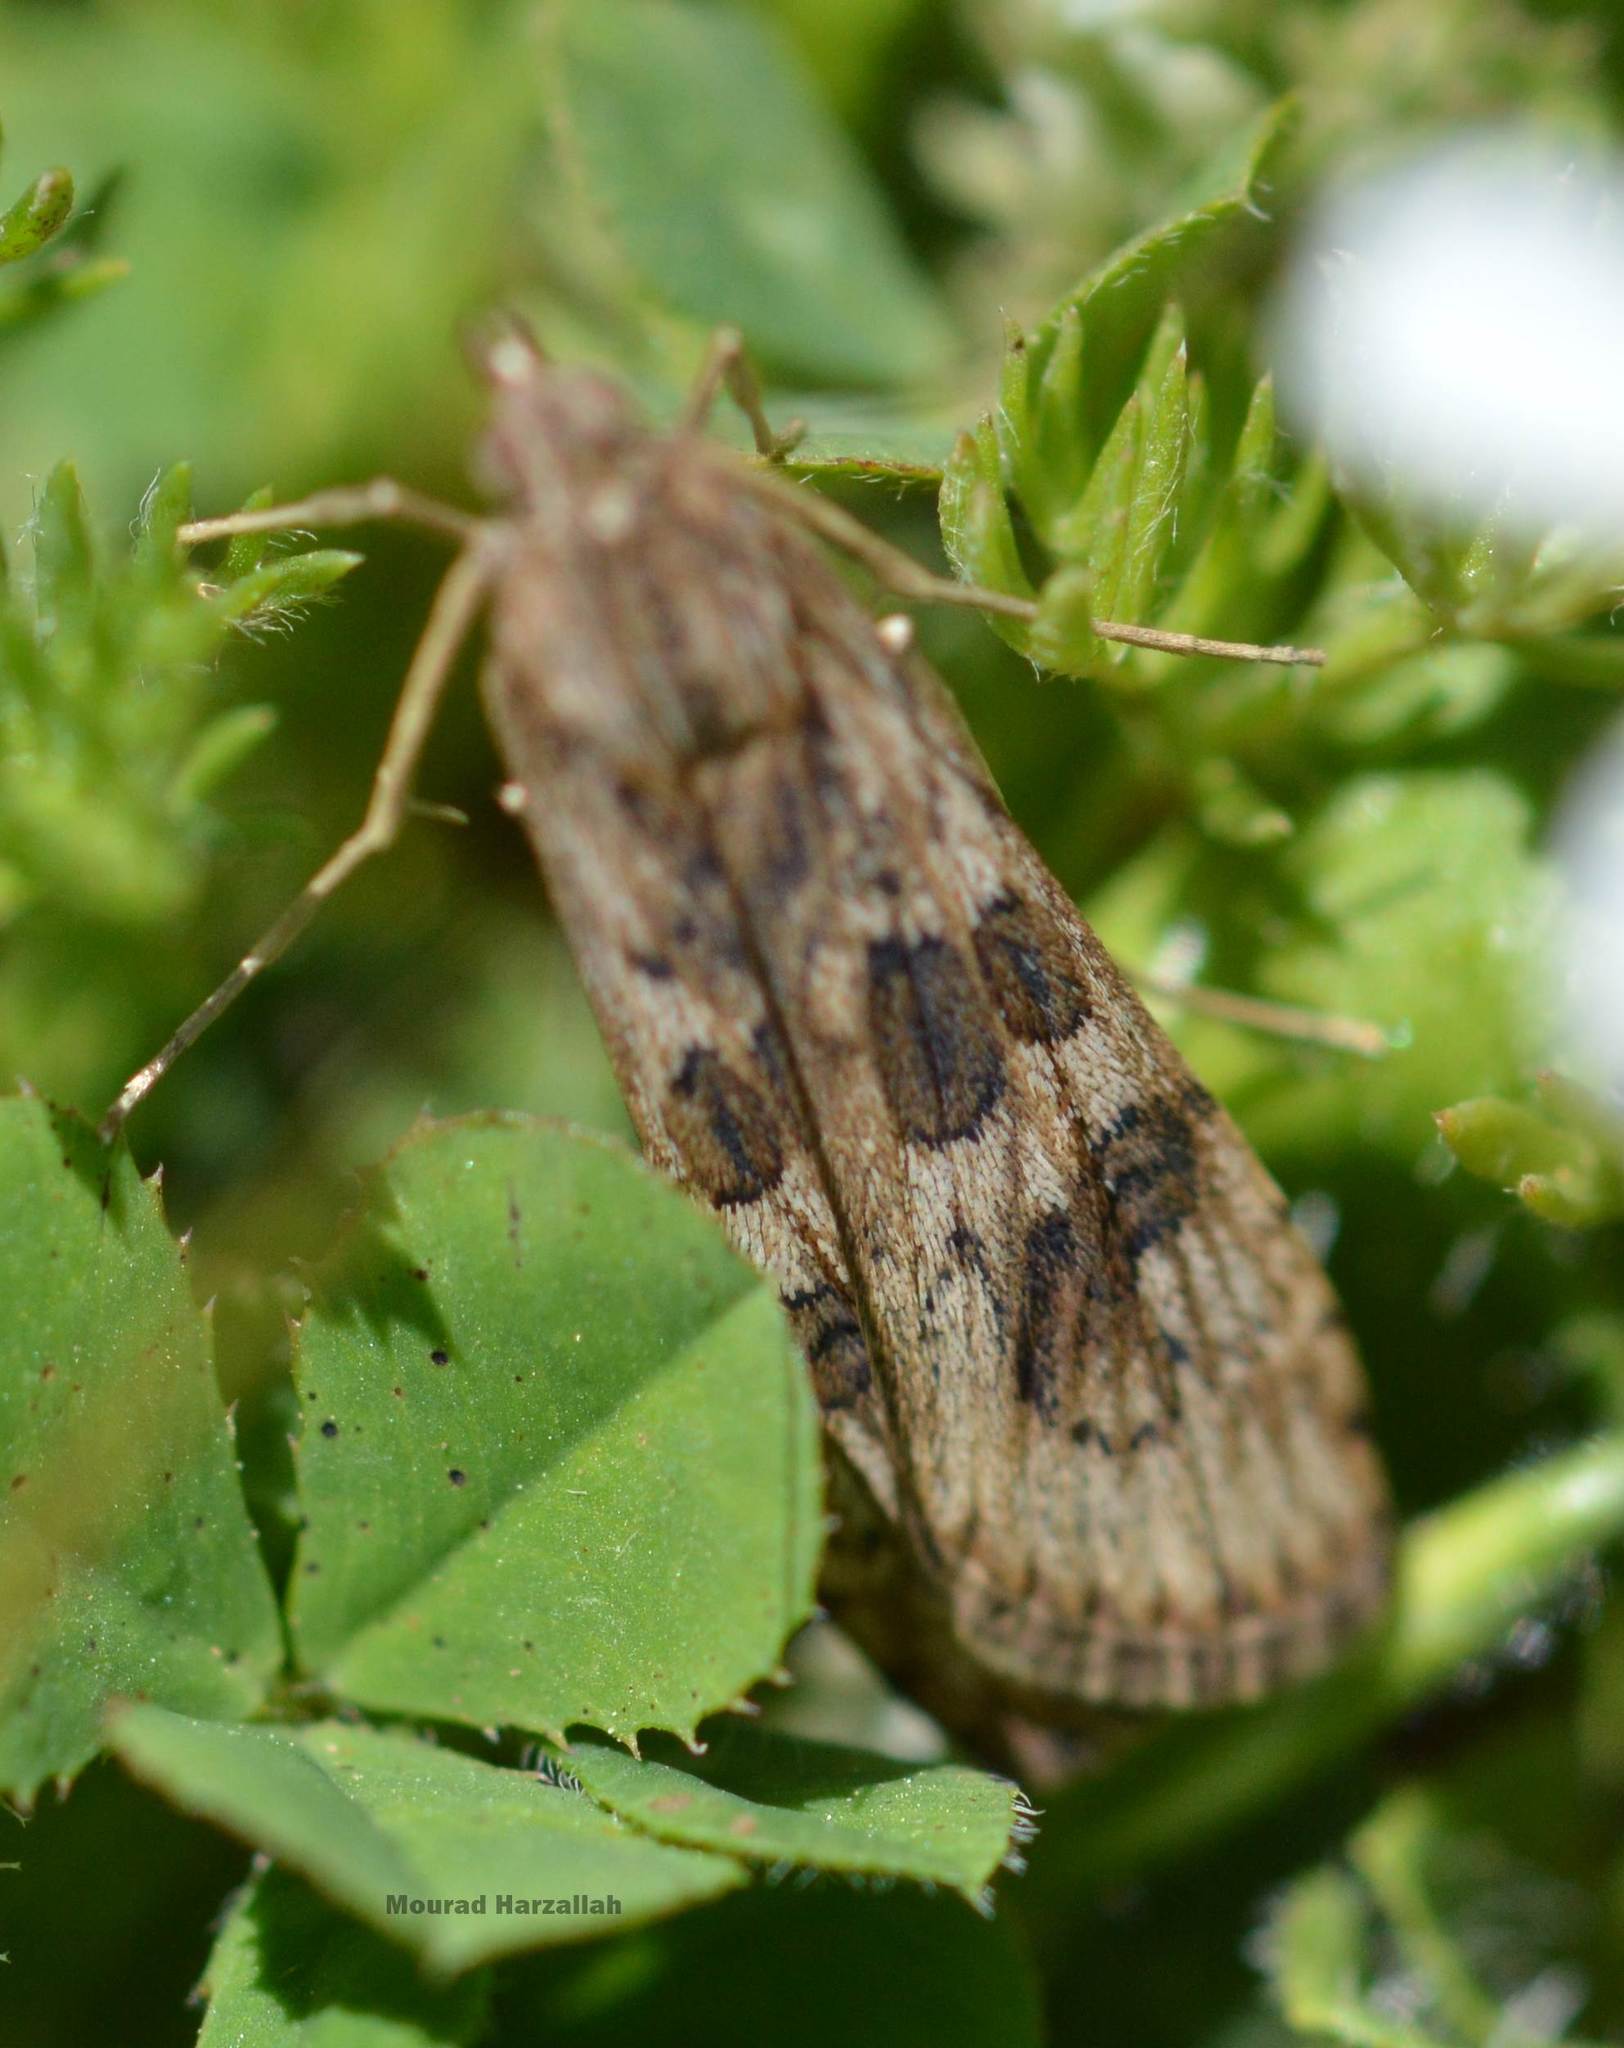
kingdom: Animalia
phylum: Arthropoda
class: Insecta
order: Lepidoptera
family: Crambidae
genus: Nomophila
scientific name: Nomophila noctuella
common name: Rush veneer
